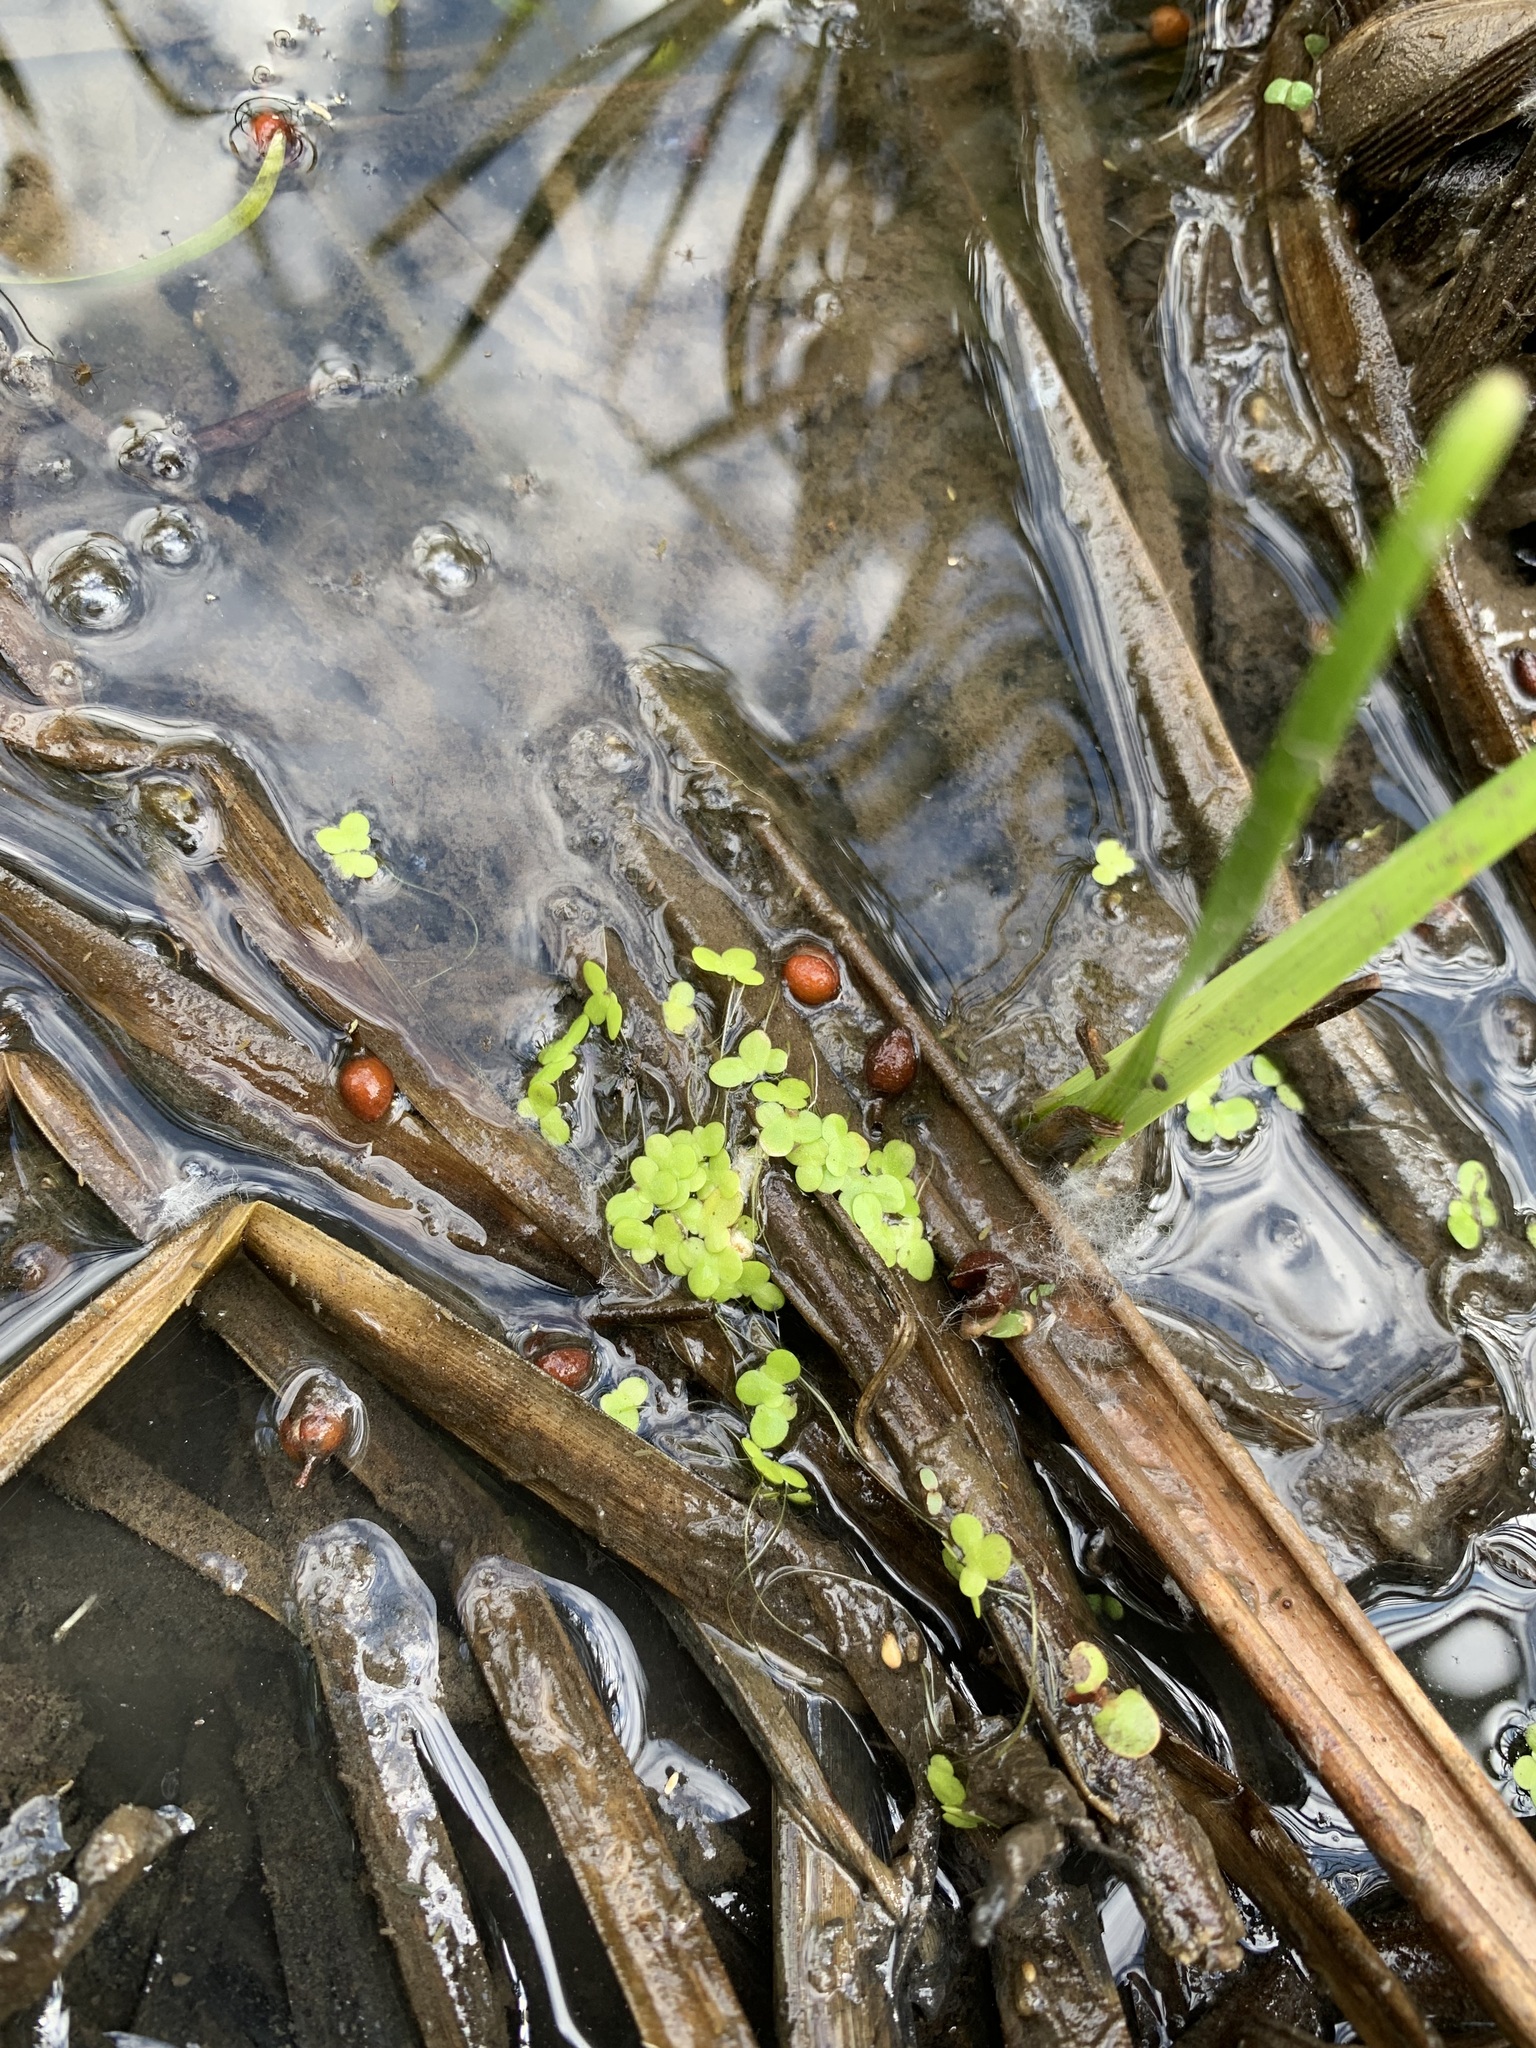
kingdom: Plantae
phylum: Tracheophyta
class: Liliopsida
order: Alismatales
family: Araceae
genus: Lemna
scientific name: Lemna turionifera
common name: Perennial duckweed
